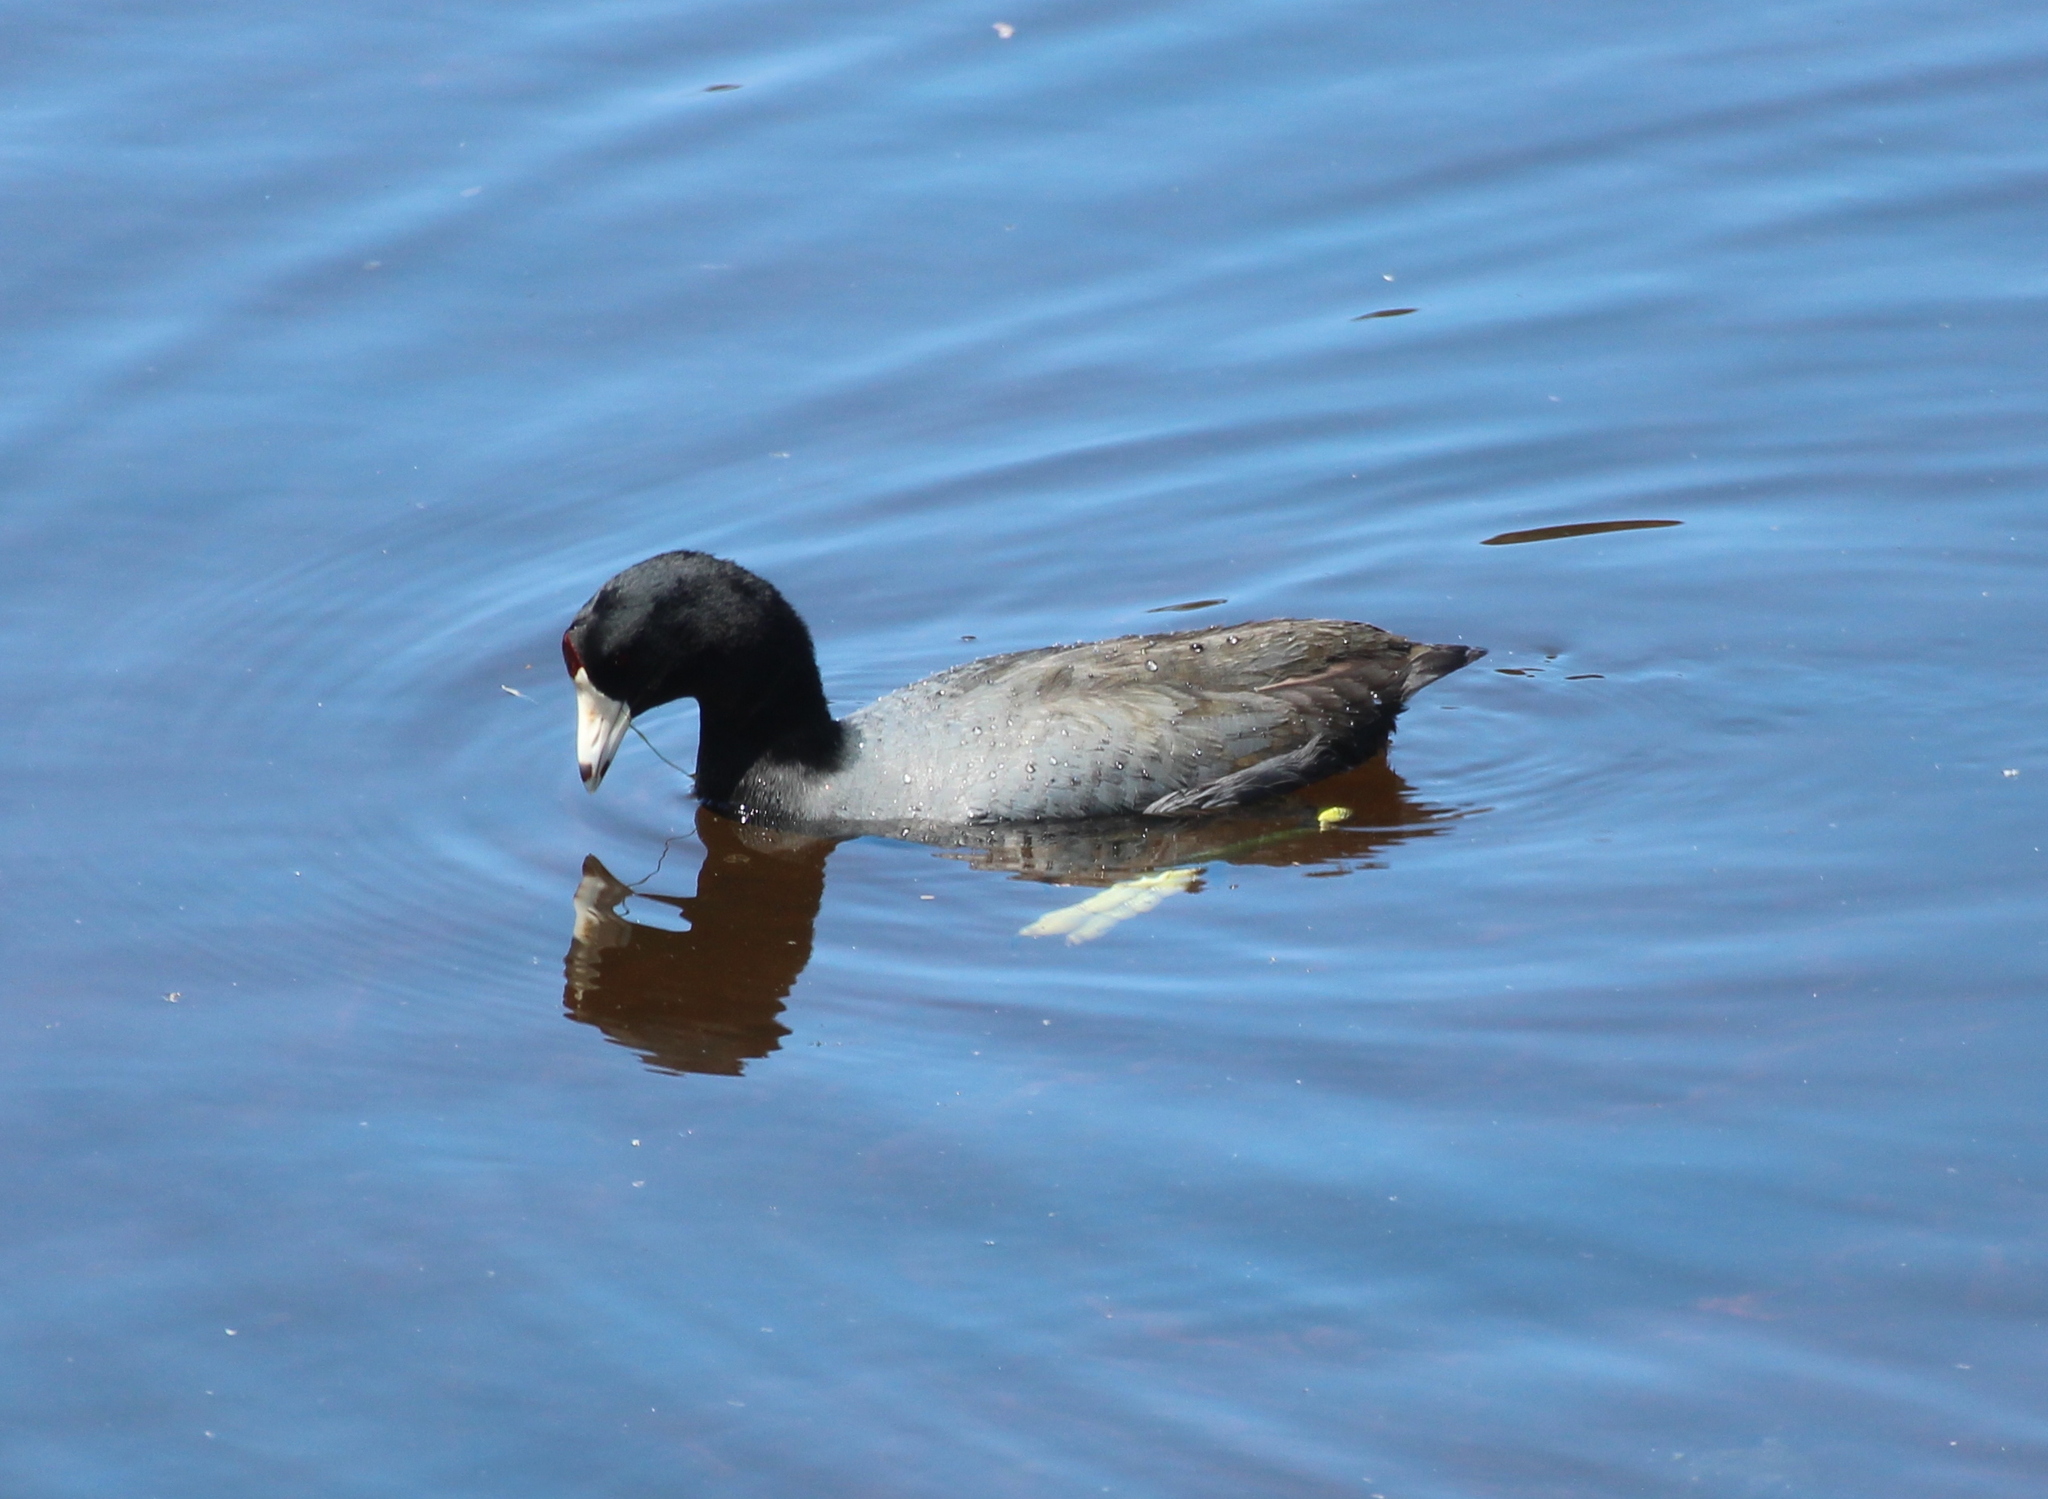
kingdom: Animalia
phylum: Chordata
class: Aves
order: Gruiformes
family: Rallidae
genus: Fulica
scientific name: Fulica americana
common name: American coot
